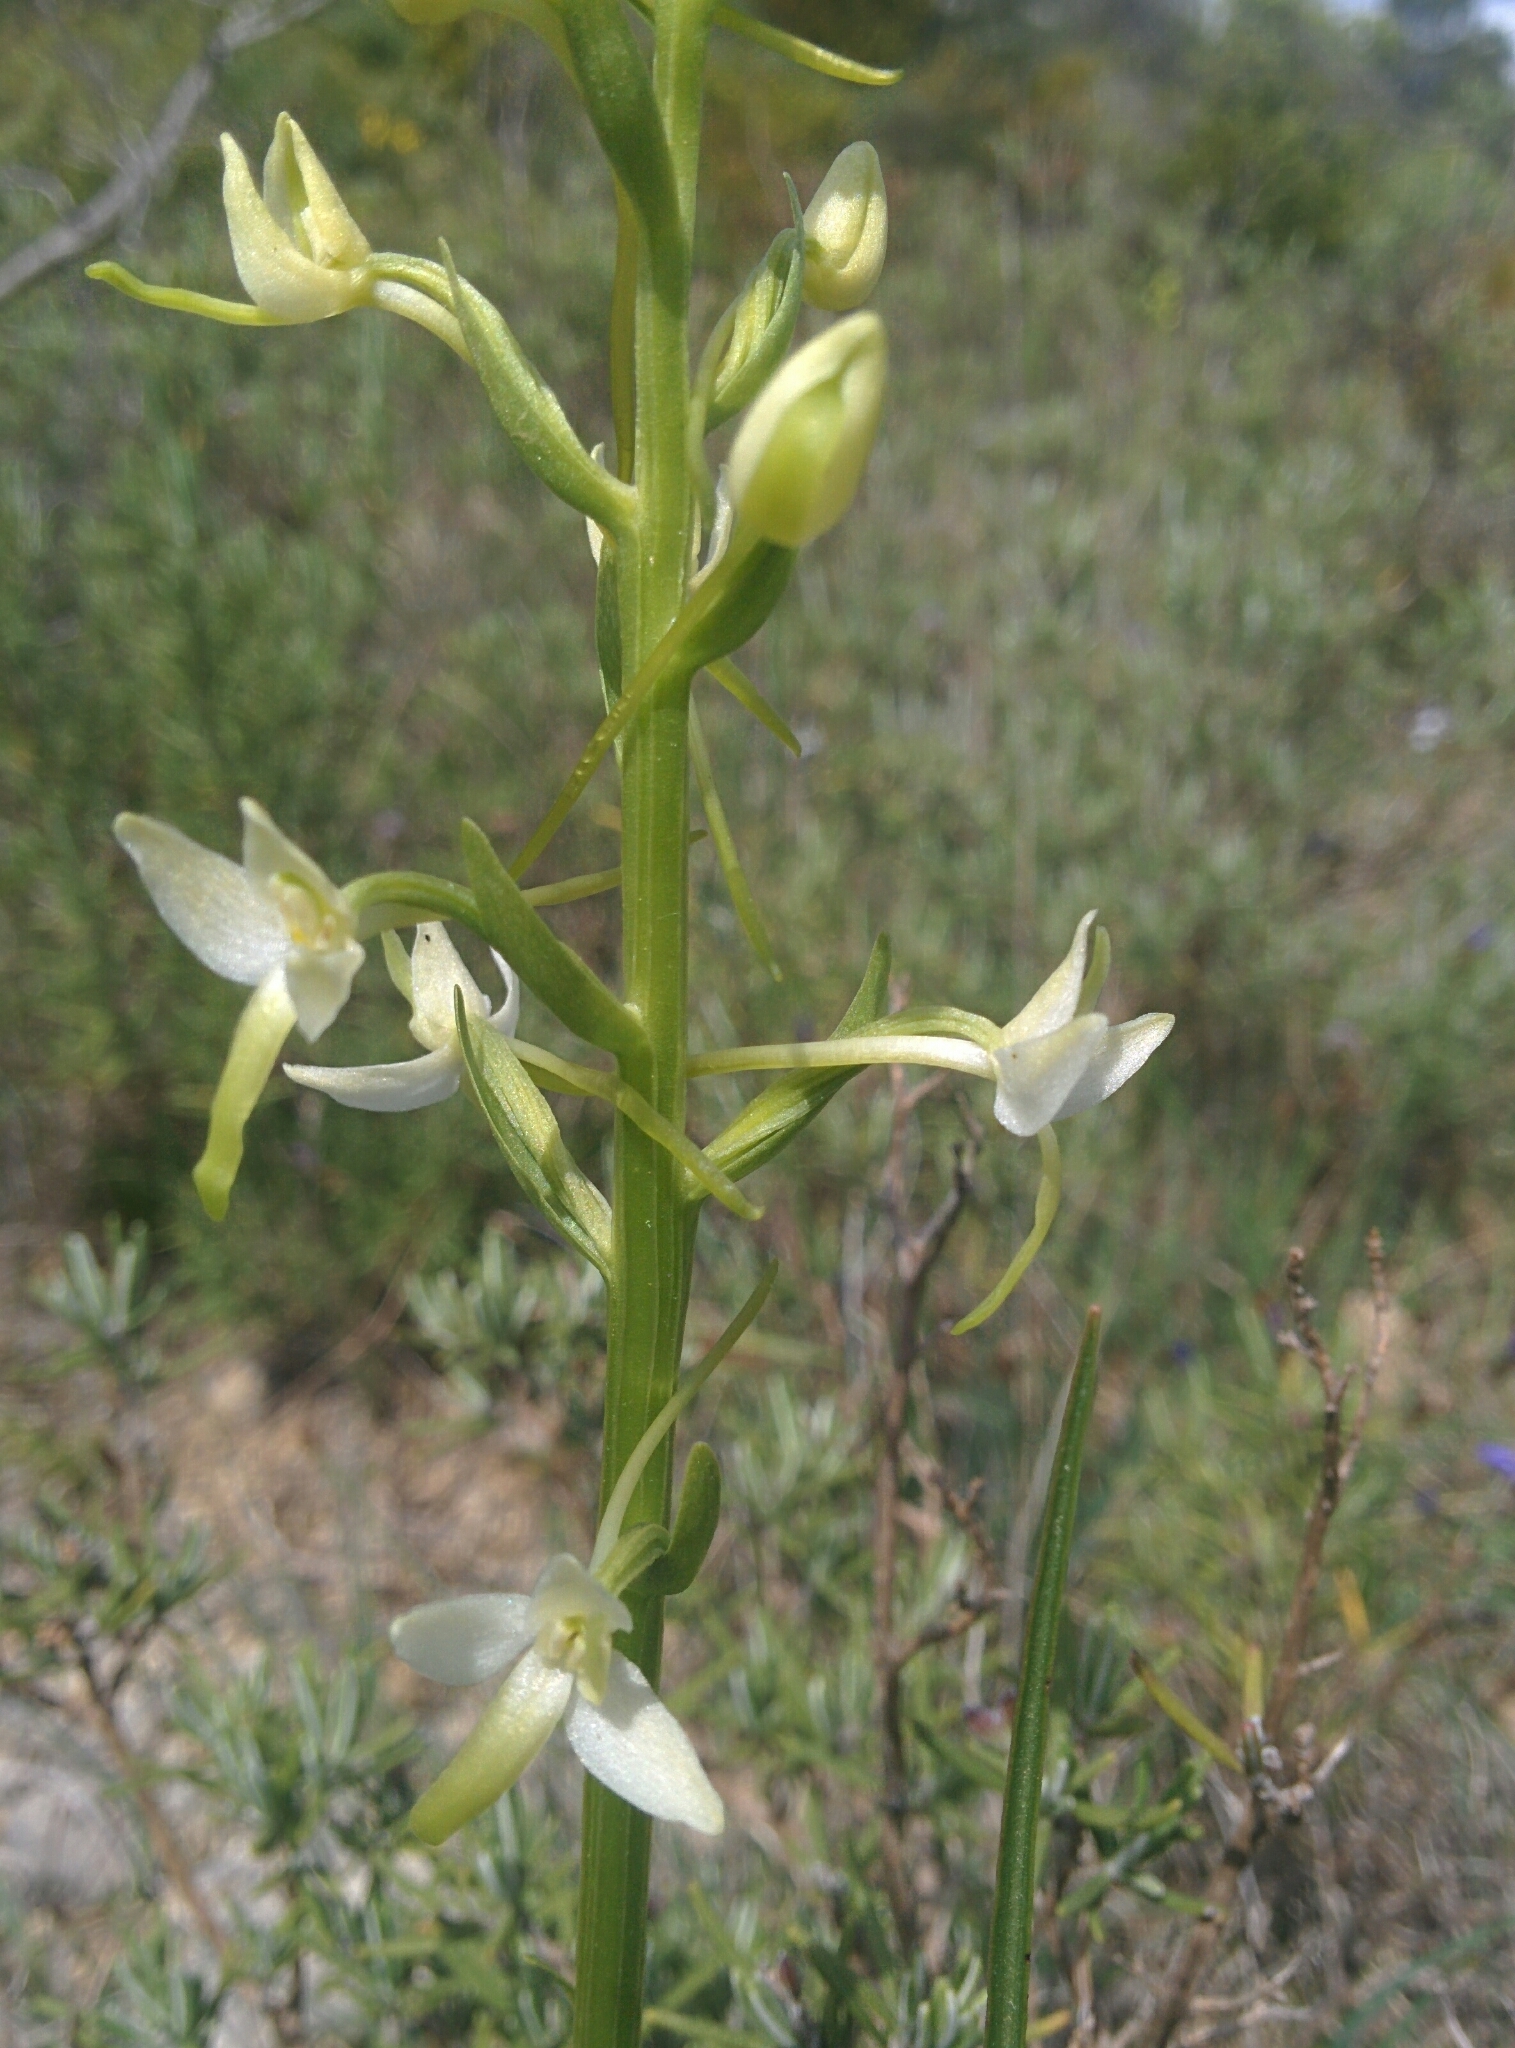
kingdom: Plantae
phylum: Tracheophyta
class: Liliopsida
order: Asparagales
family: Orchidaceae
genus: Platanthera
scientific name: Platanthera bifolia
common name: Lesser butterfly-orchid
